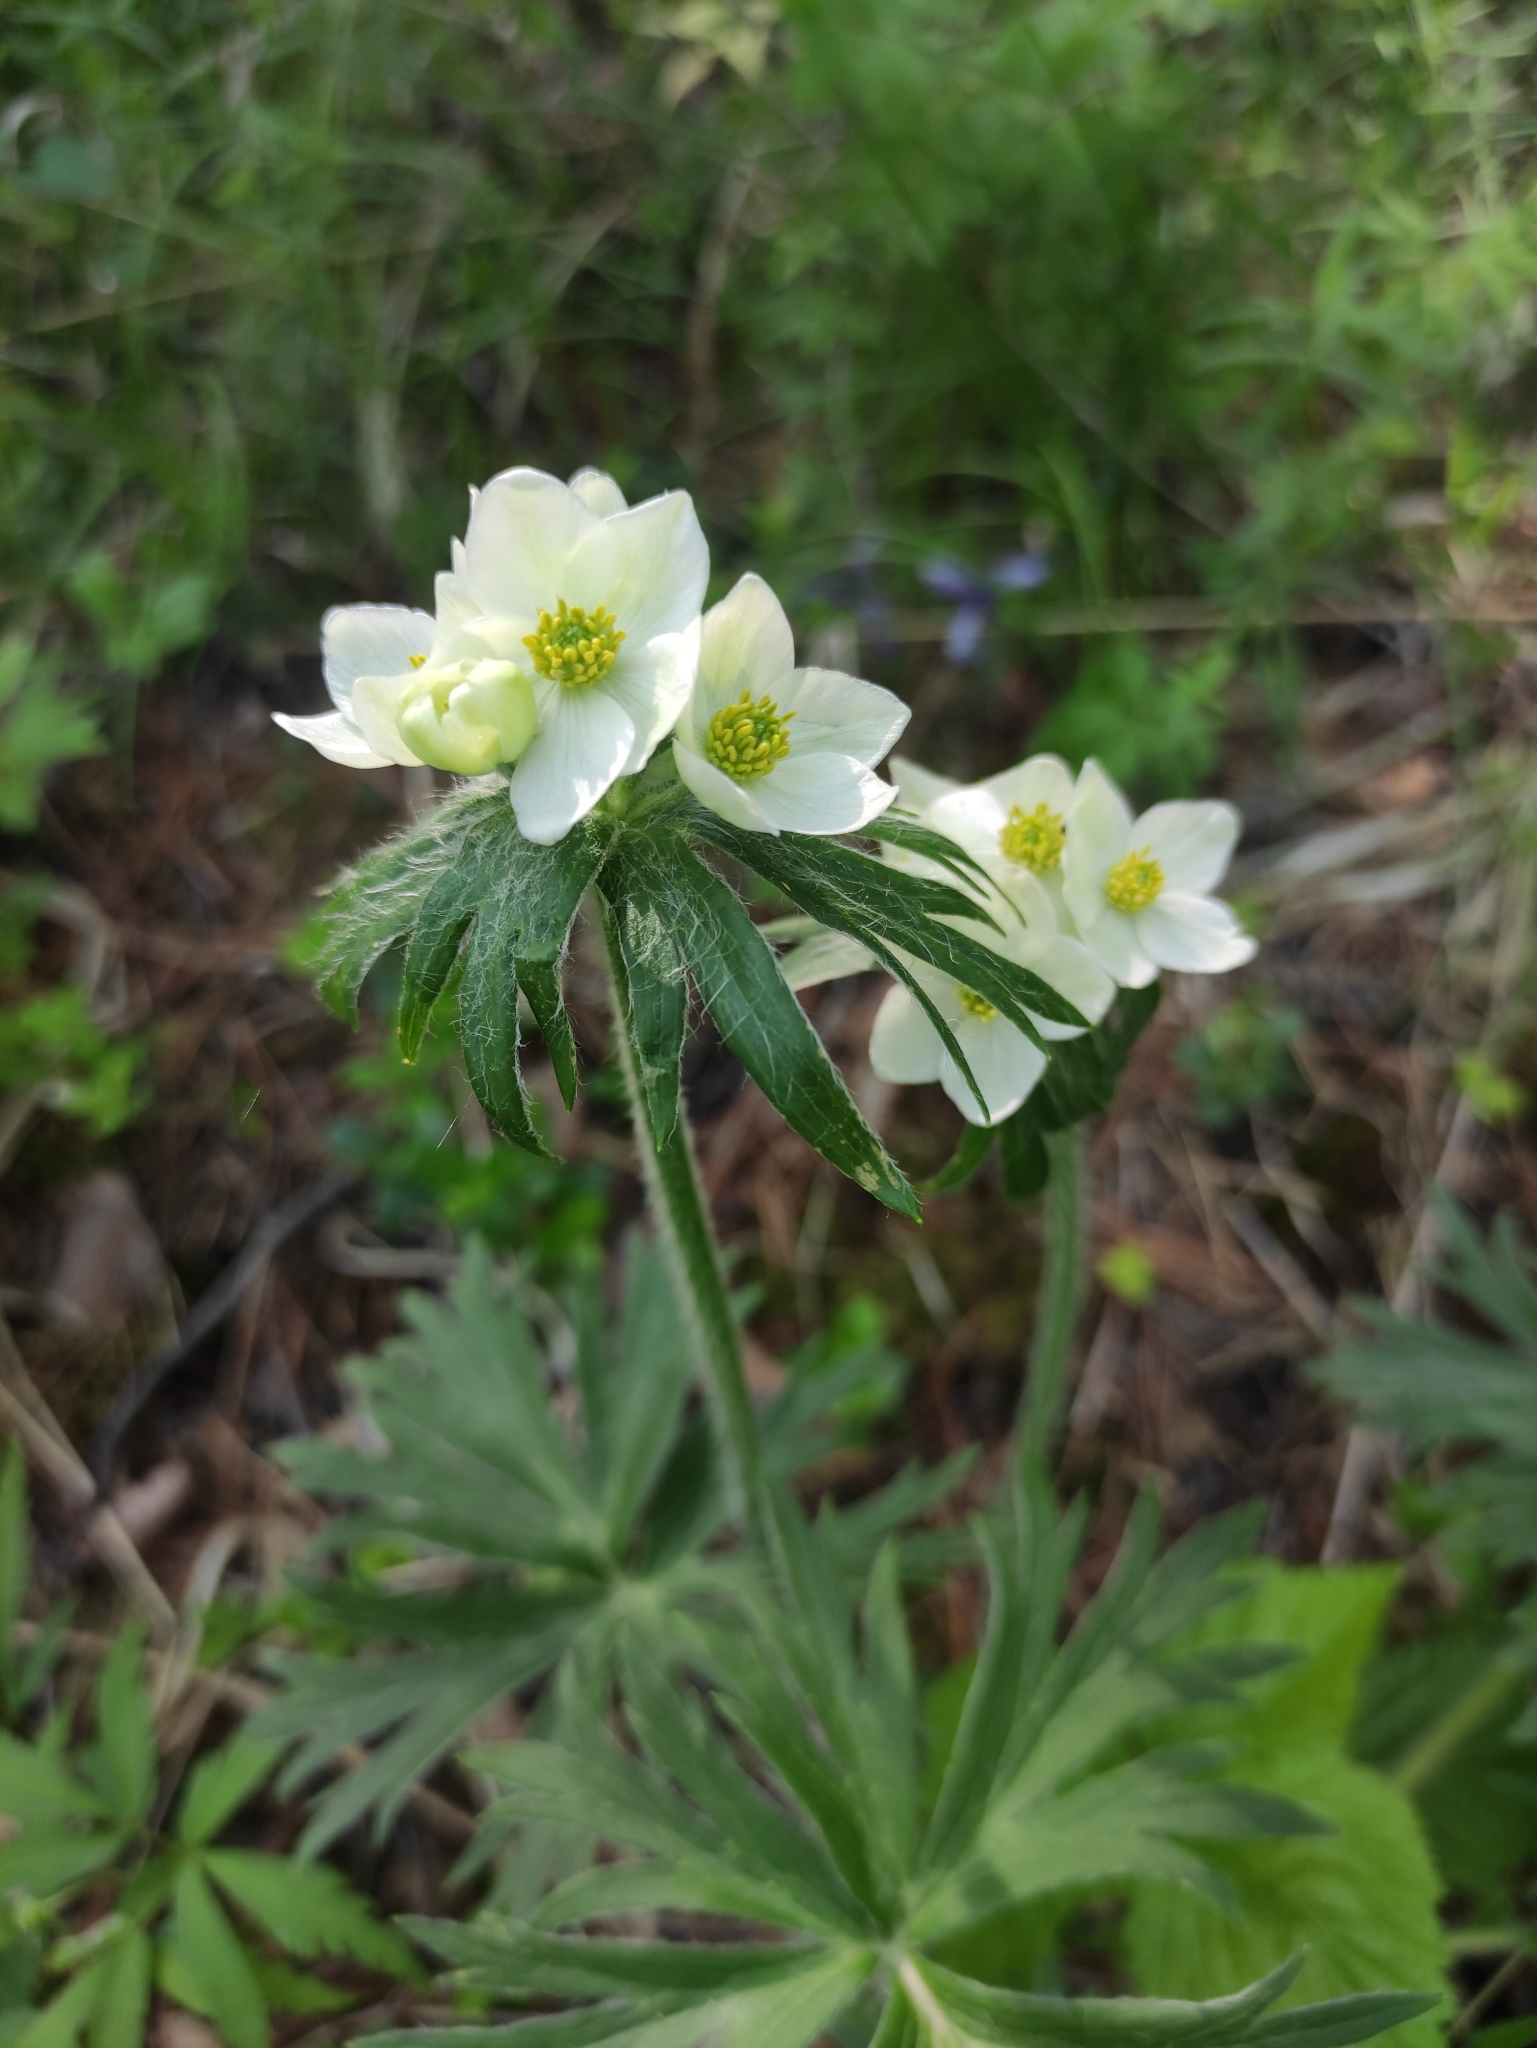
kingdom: Plantae
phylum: Tracheophyta
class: Magnoliopsida
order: Ranunculales
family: Ranunculaceae
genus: Anemonastrum
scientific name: Anemonastrum narcissiflorum
